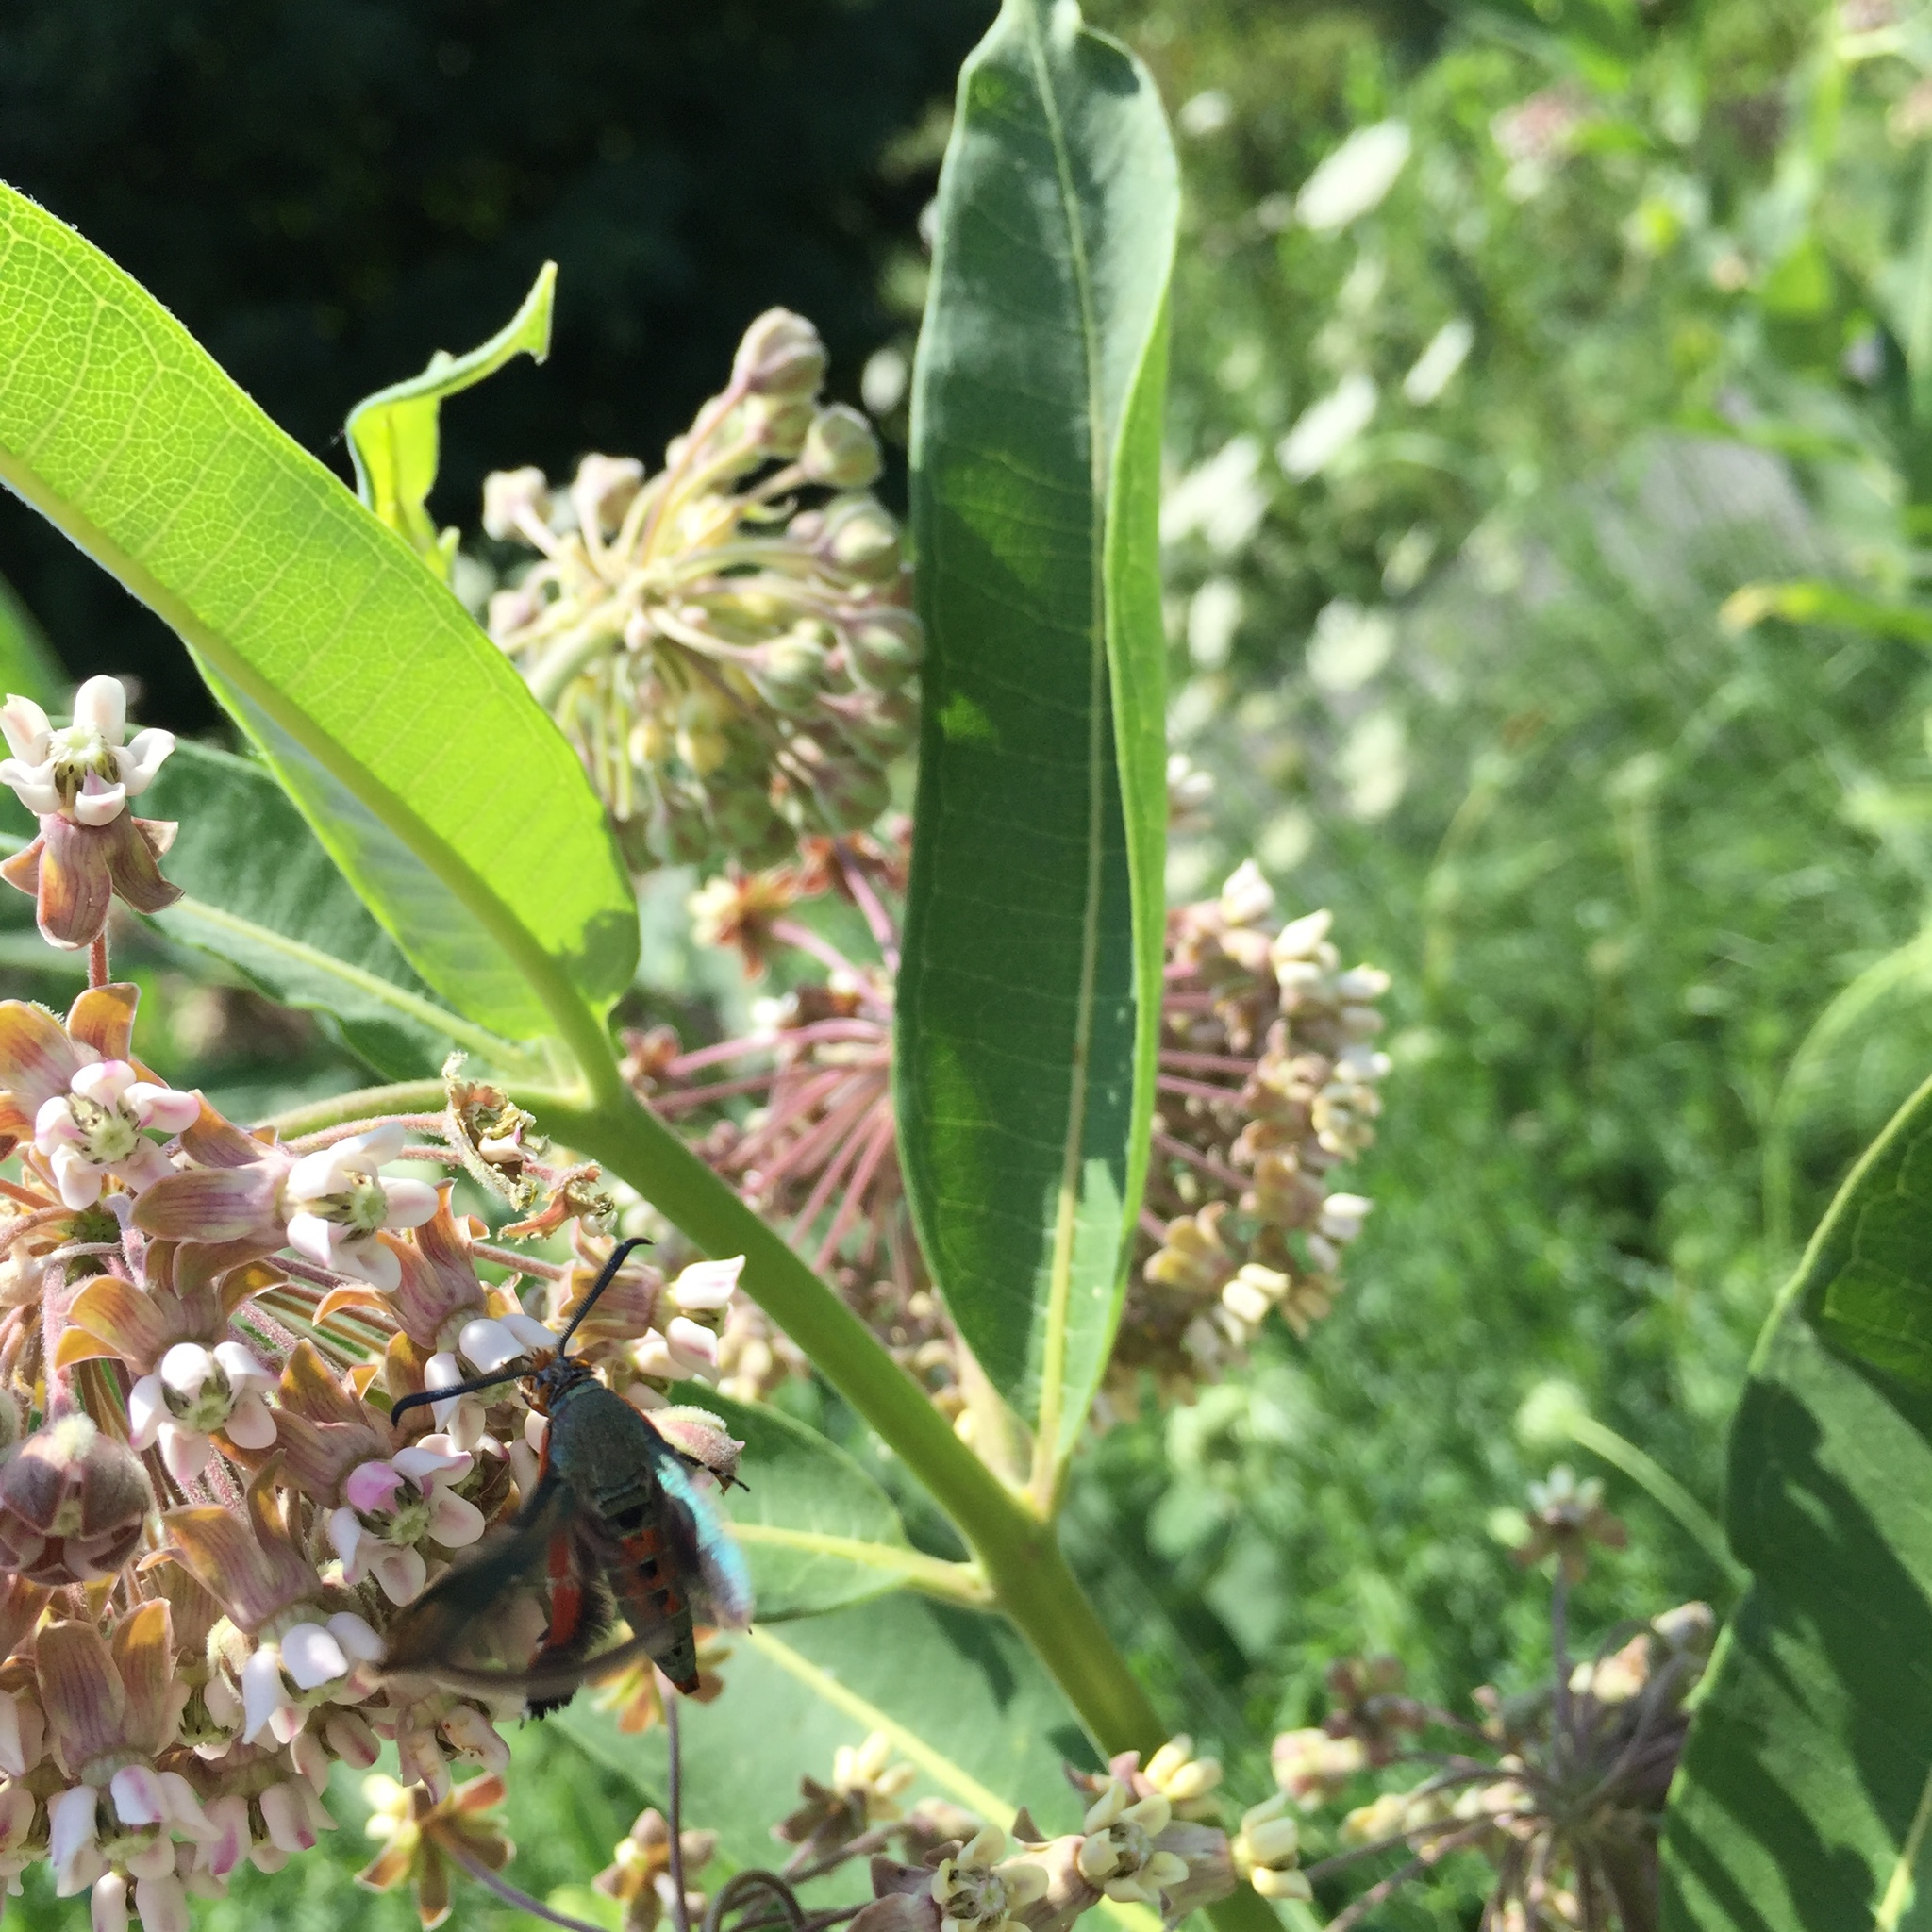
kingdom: Animalia
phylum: Arthropoda
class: Insecta
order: Lepidoptera
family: Sesiidae
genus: Eichlinia
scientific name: Eichlinia cucurbitae
